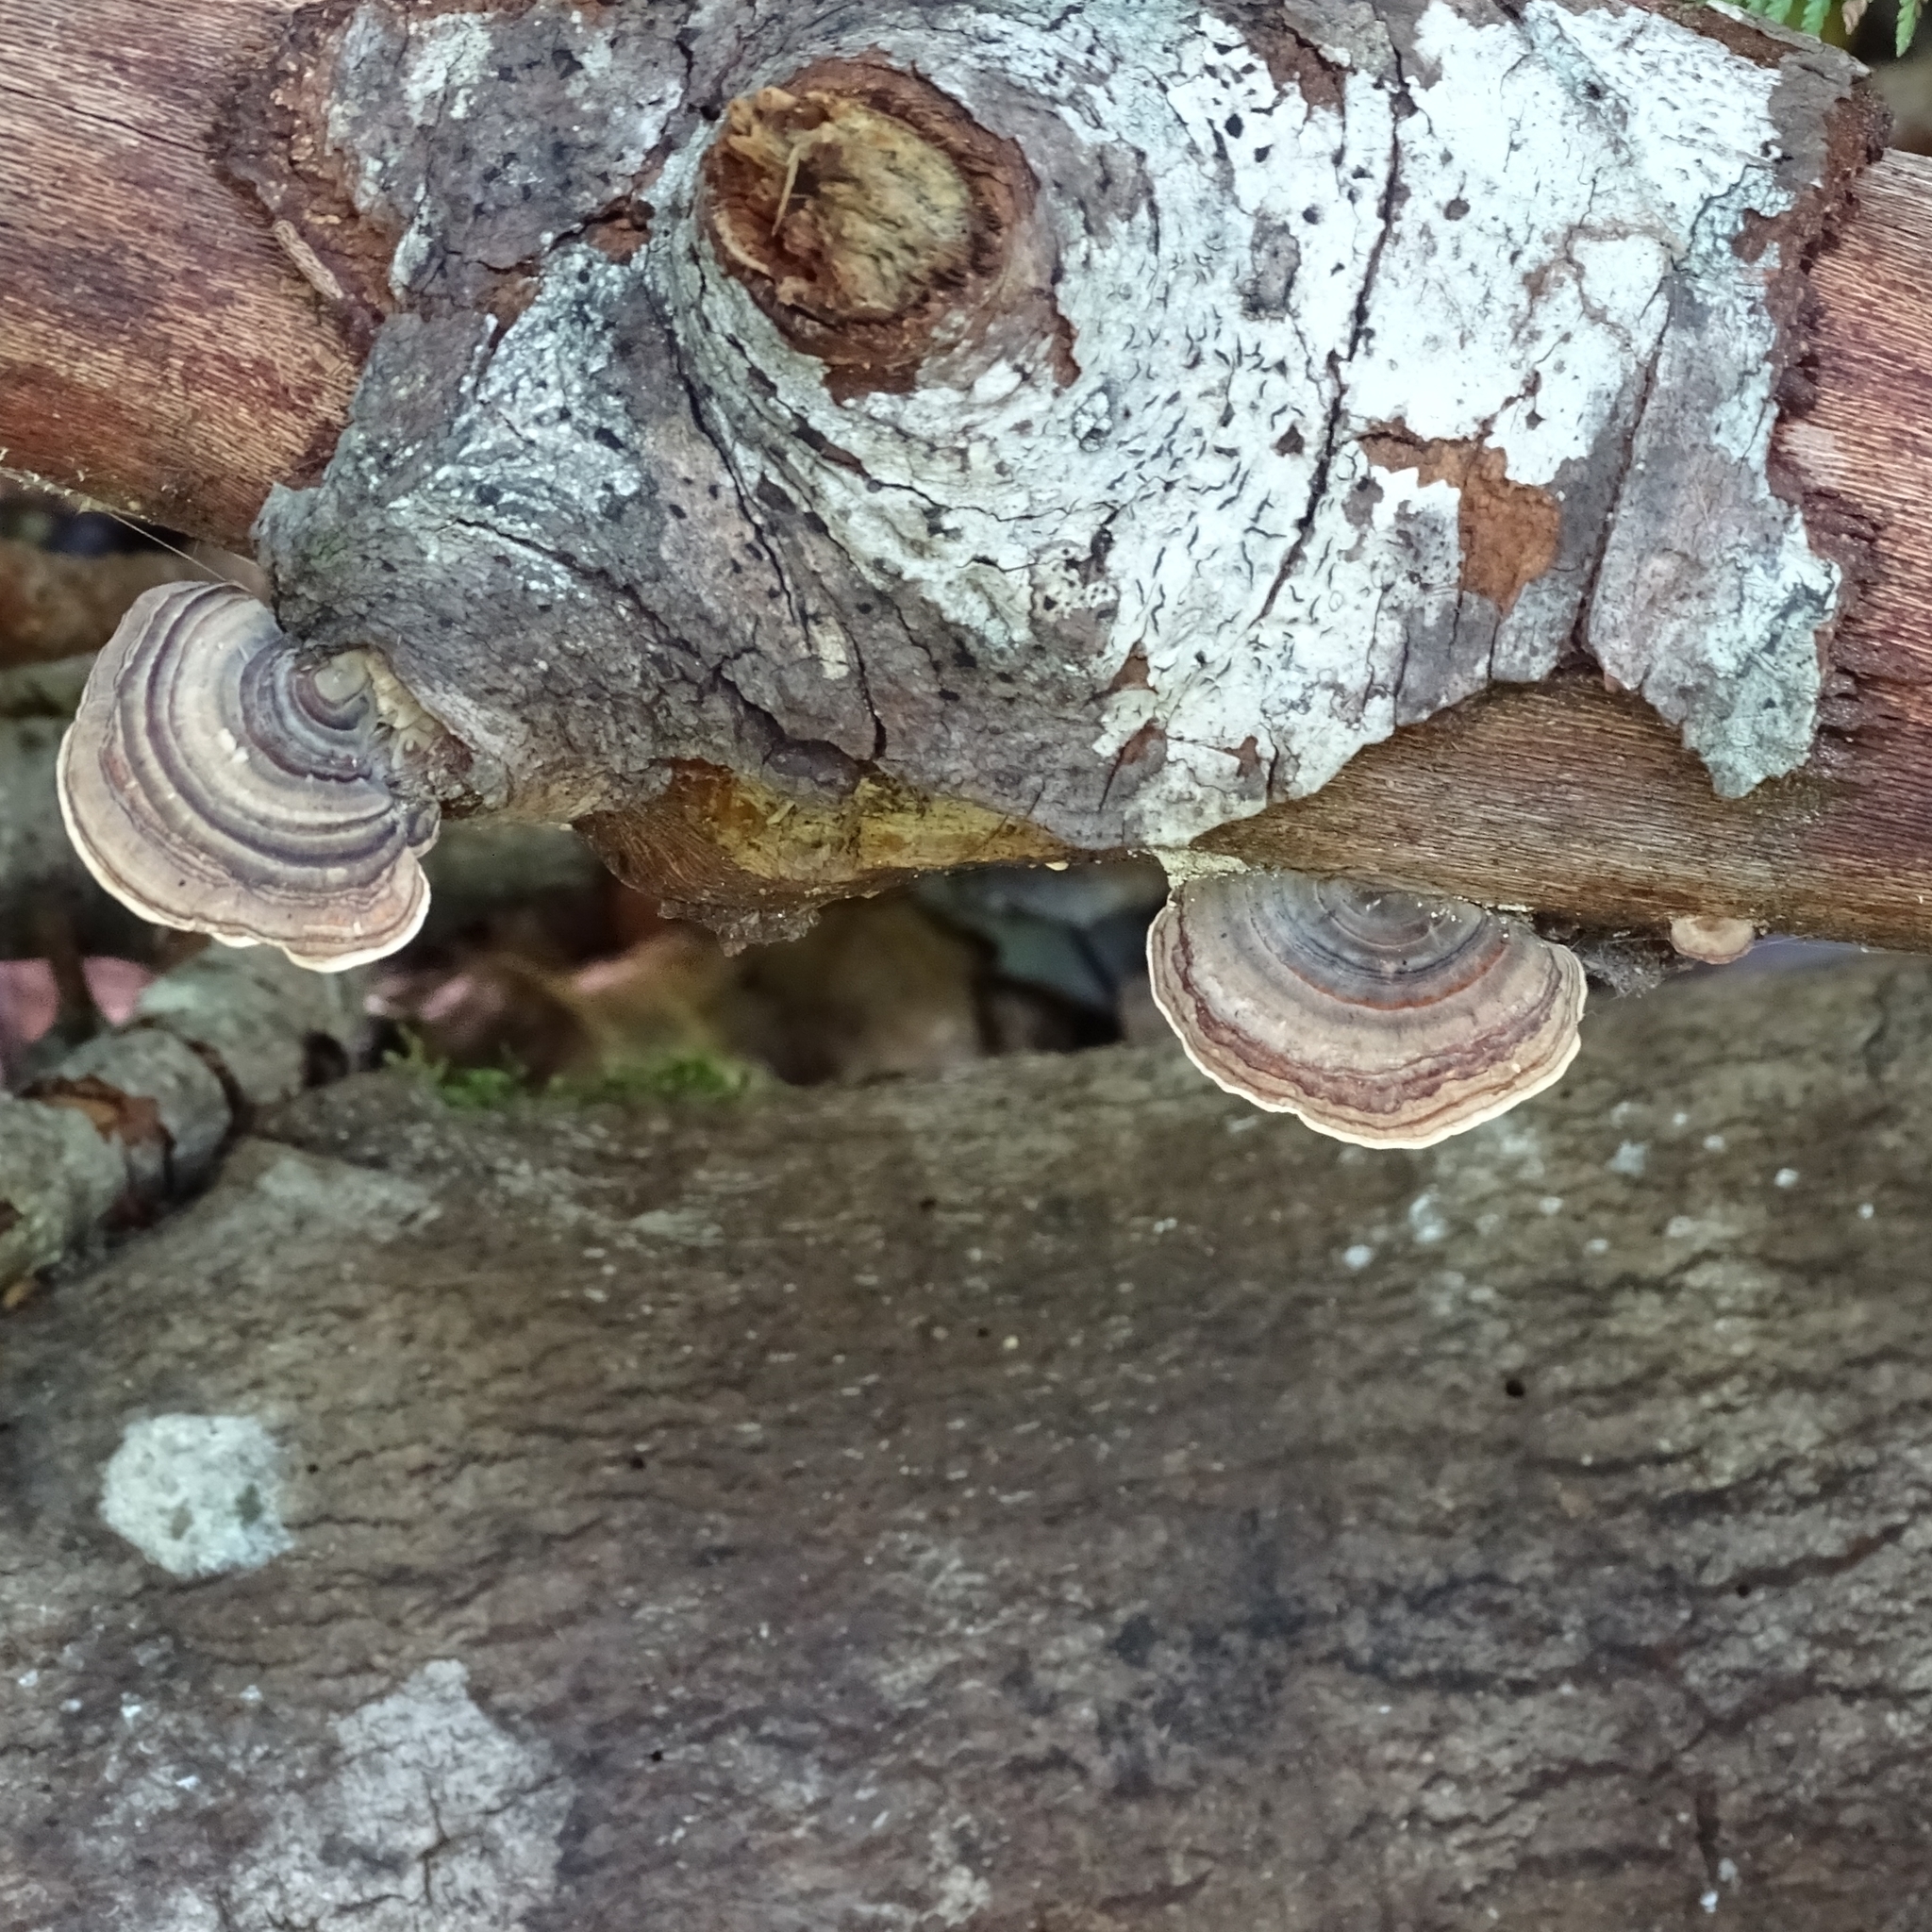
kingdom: Fungi
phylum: Basidiomycota
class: Agaricomycetes
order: Polyporales
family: Polyporaceae
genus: Trametes
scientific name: Trametes versicolor
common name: Turkeytail
